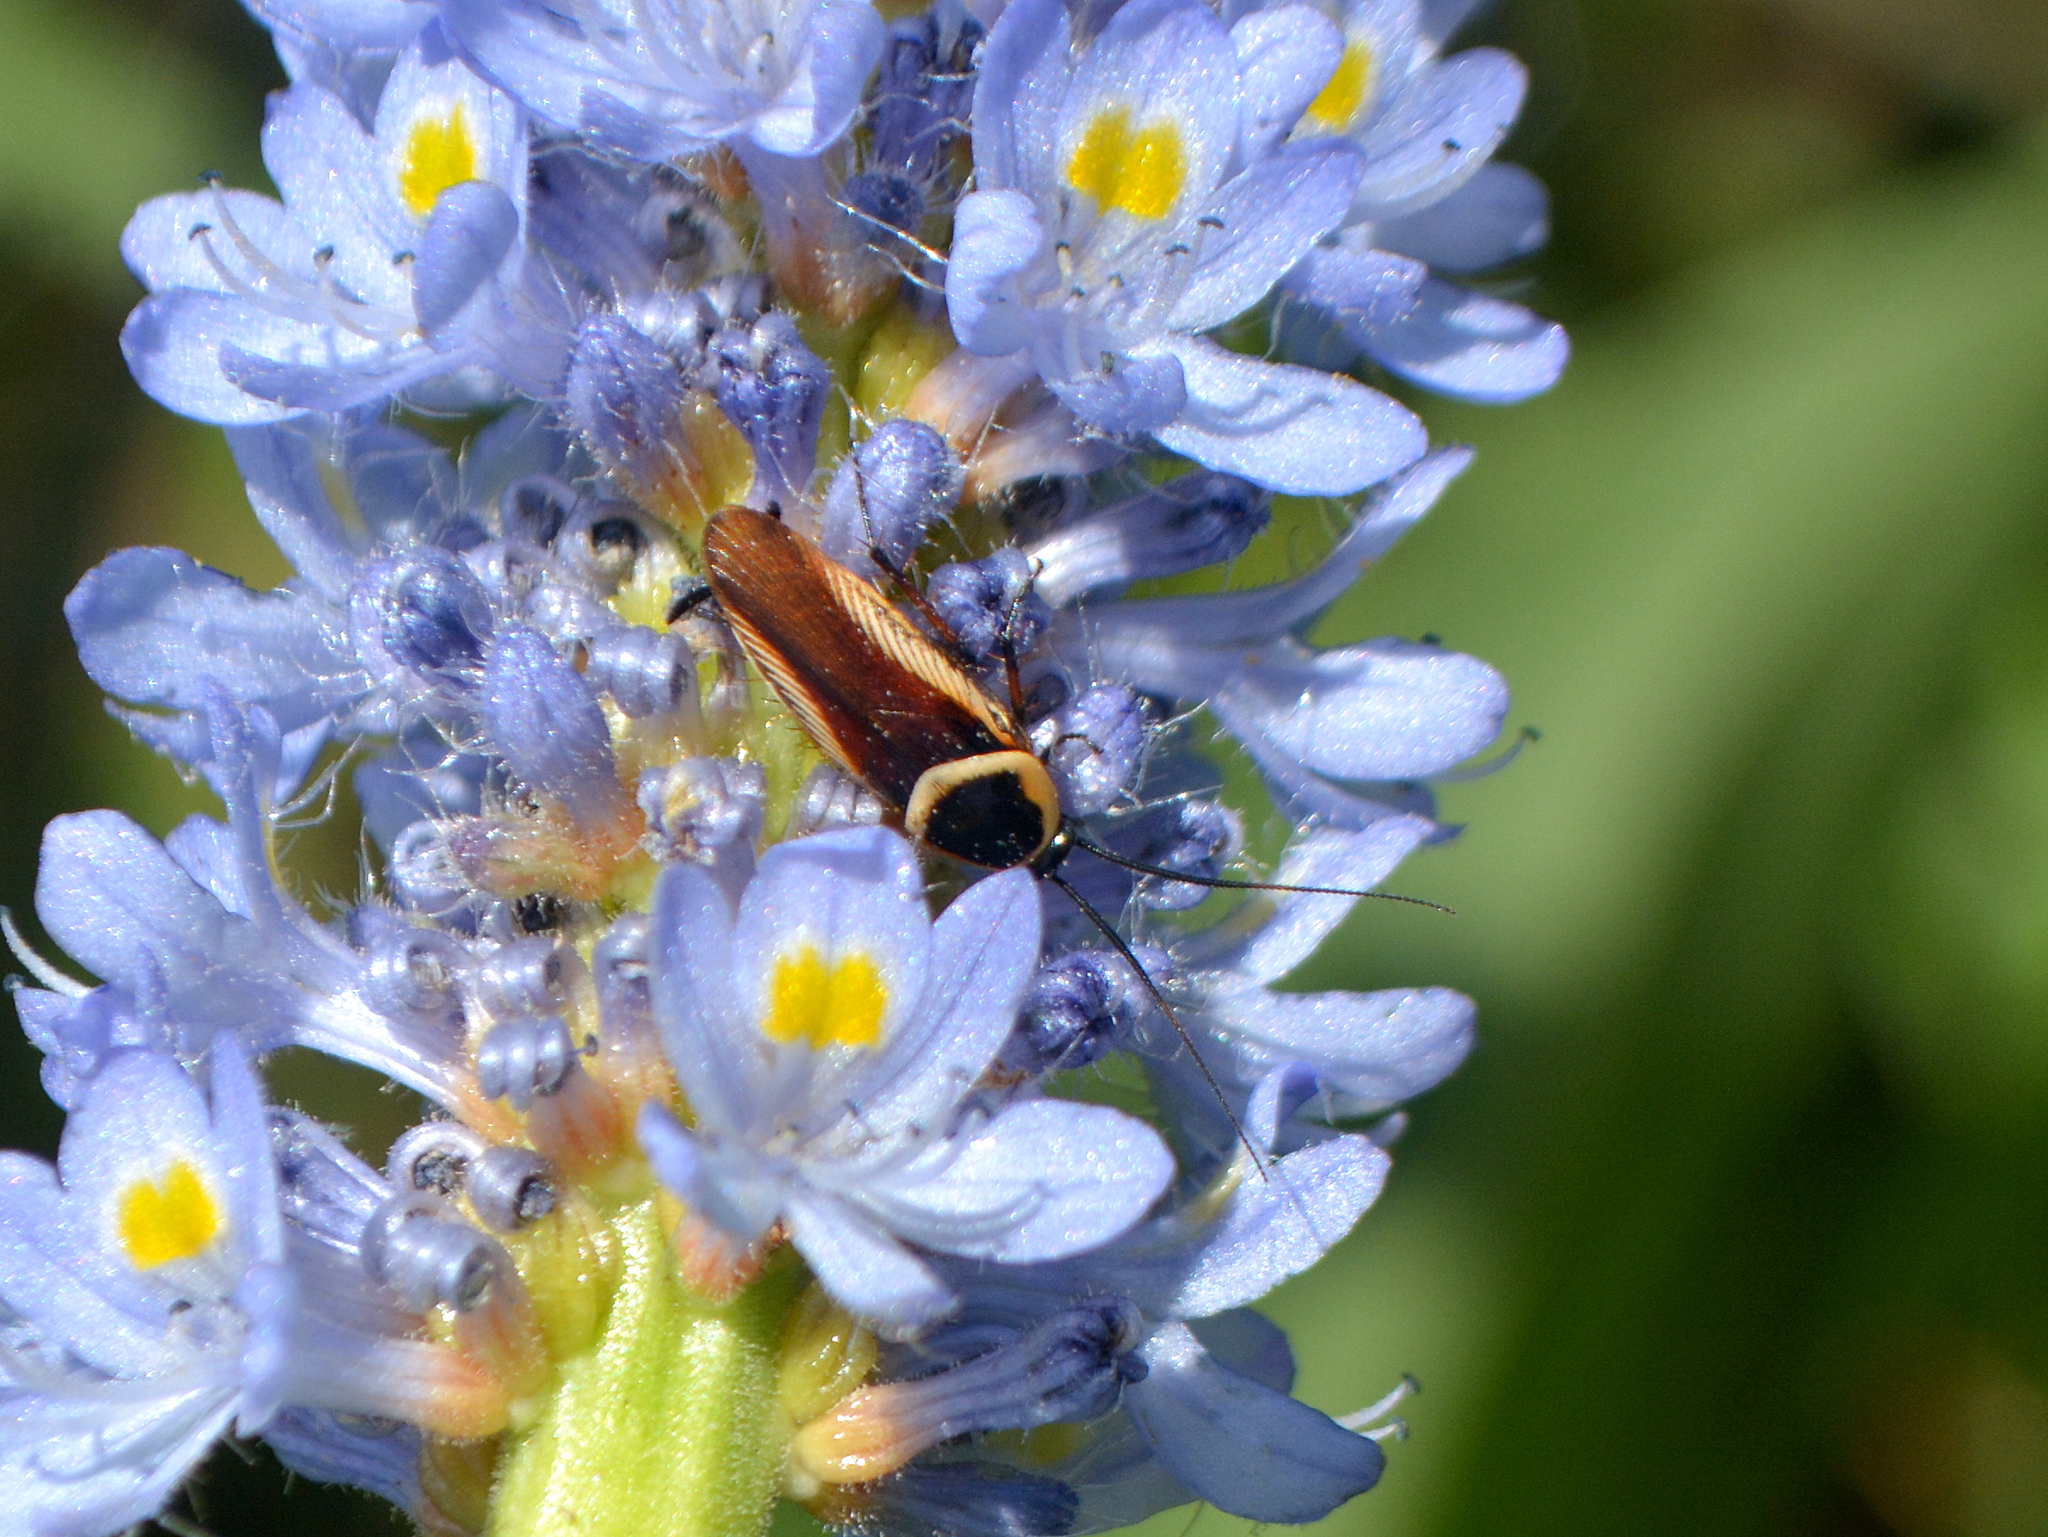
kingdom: Animalia
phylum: Arthropoda
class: Insecta
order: Blattodea
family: Ectobiidae
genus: Pseudomops
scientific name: Pseudomops neglectus
